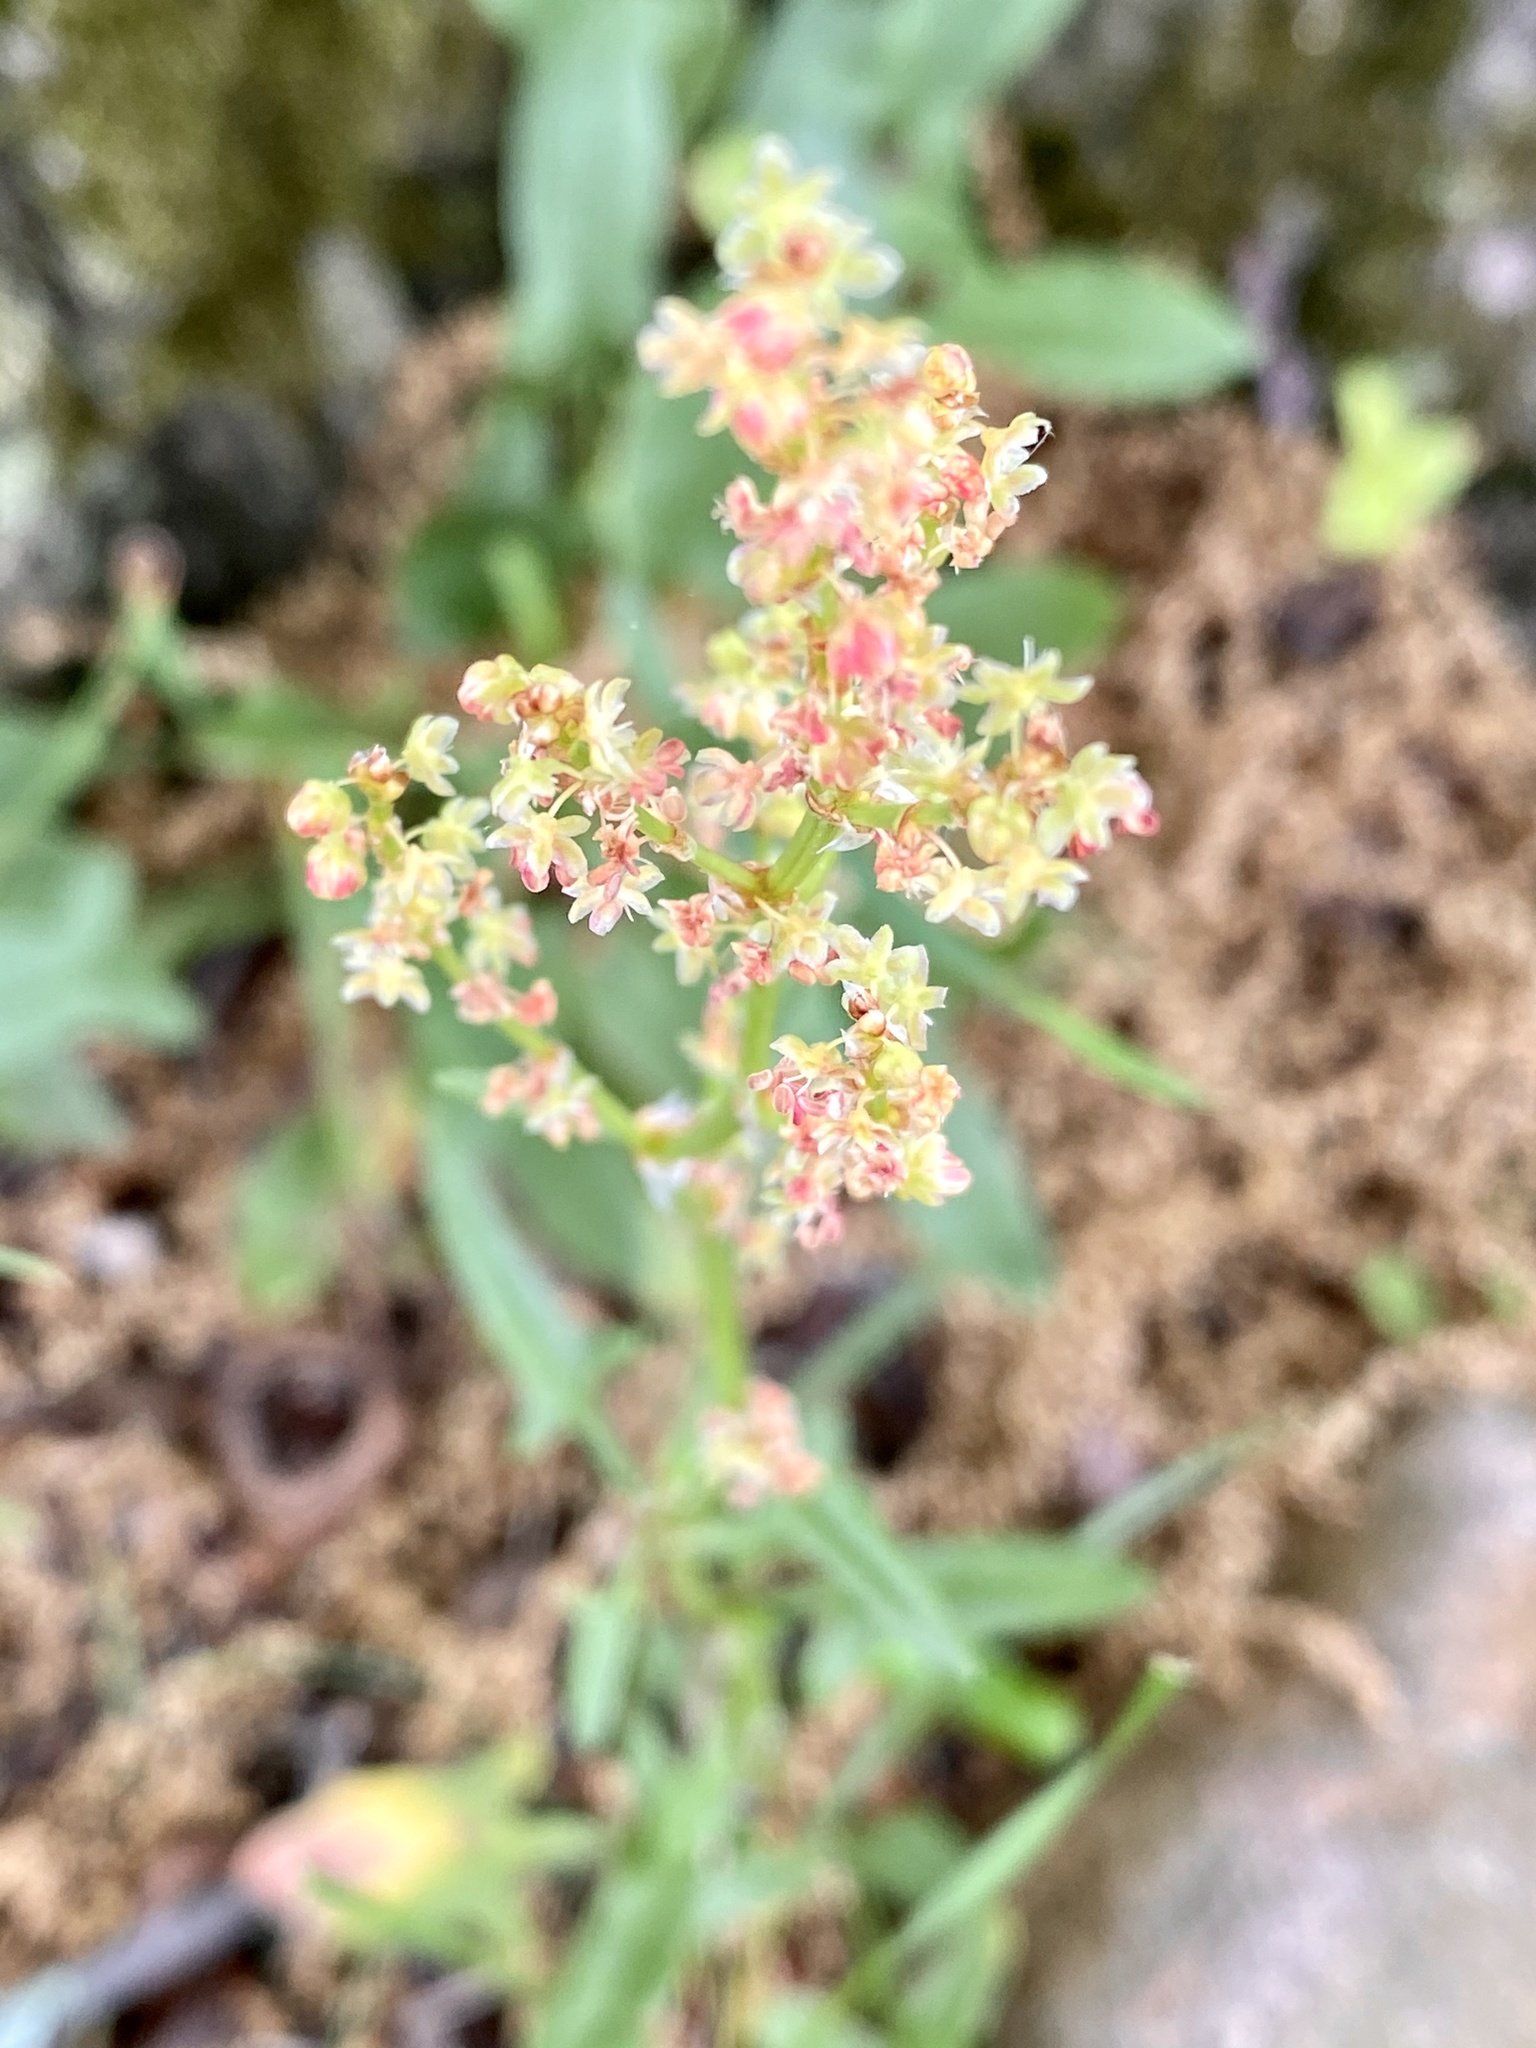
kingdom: Plantae
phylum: Tracheophyta
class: Magnoliopsida
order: Caryophyllales
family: Polygonaceae
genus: Rumex
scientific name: Rumex acetosella
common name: Common sheep sorrel
